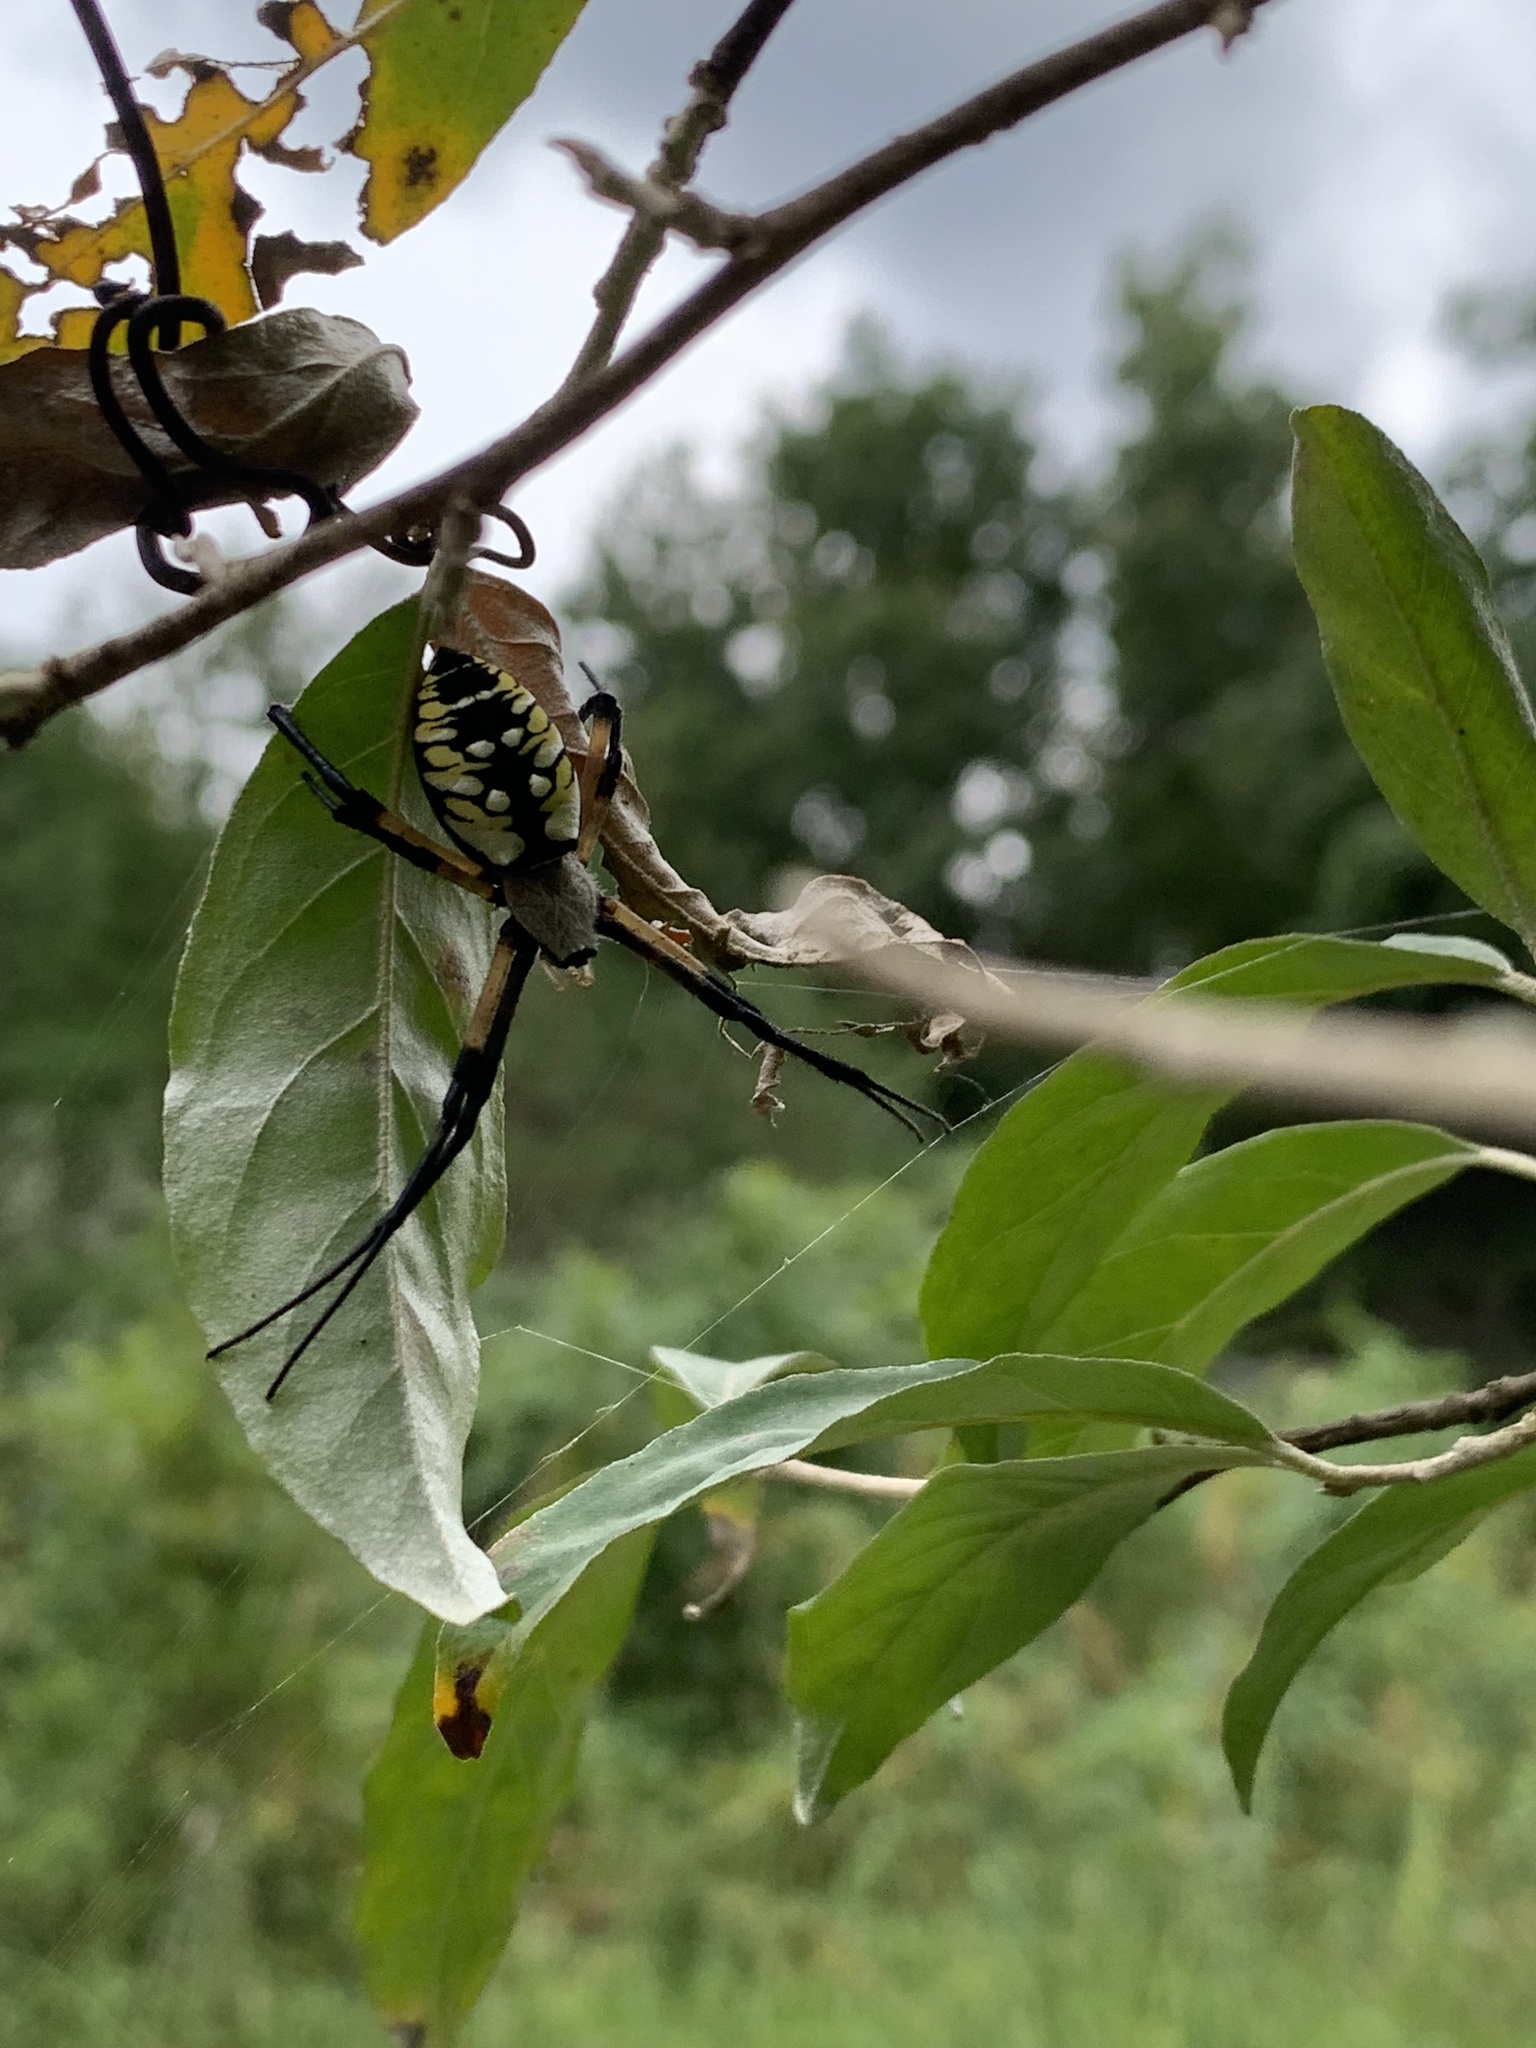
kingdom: Animalia
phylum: Arthropoda
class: Arachnida
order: Araneae
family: Araneidae
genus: Argiope
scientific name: Argiope aurantia
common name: Orb weavers
